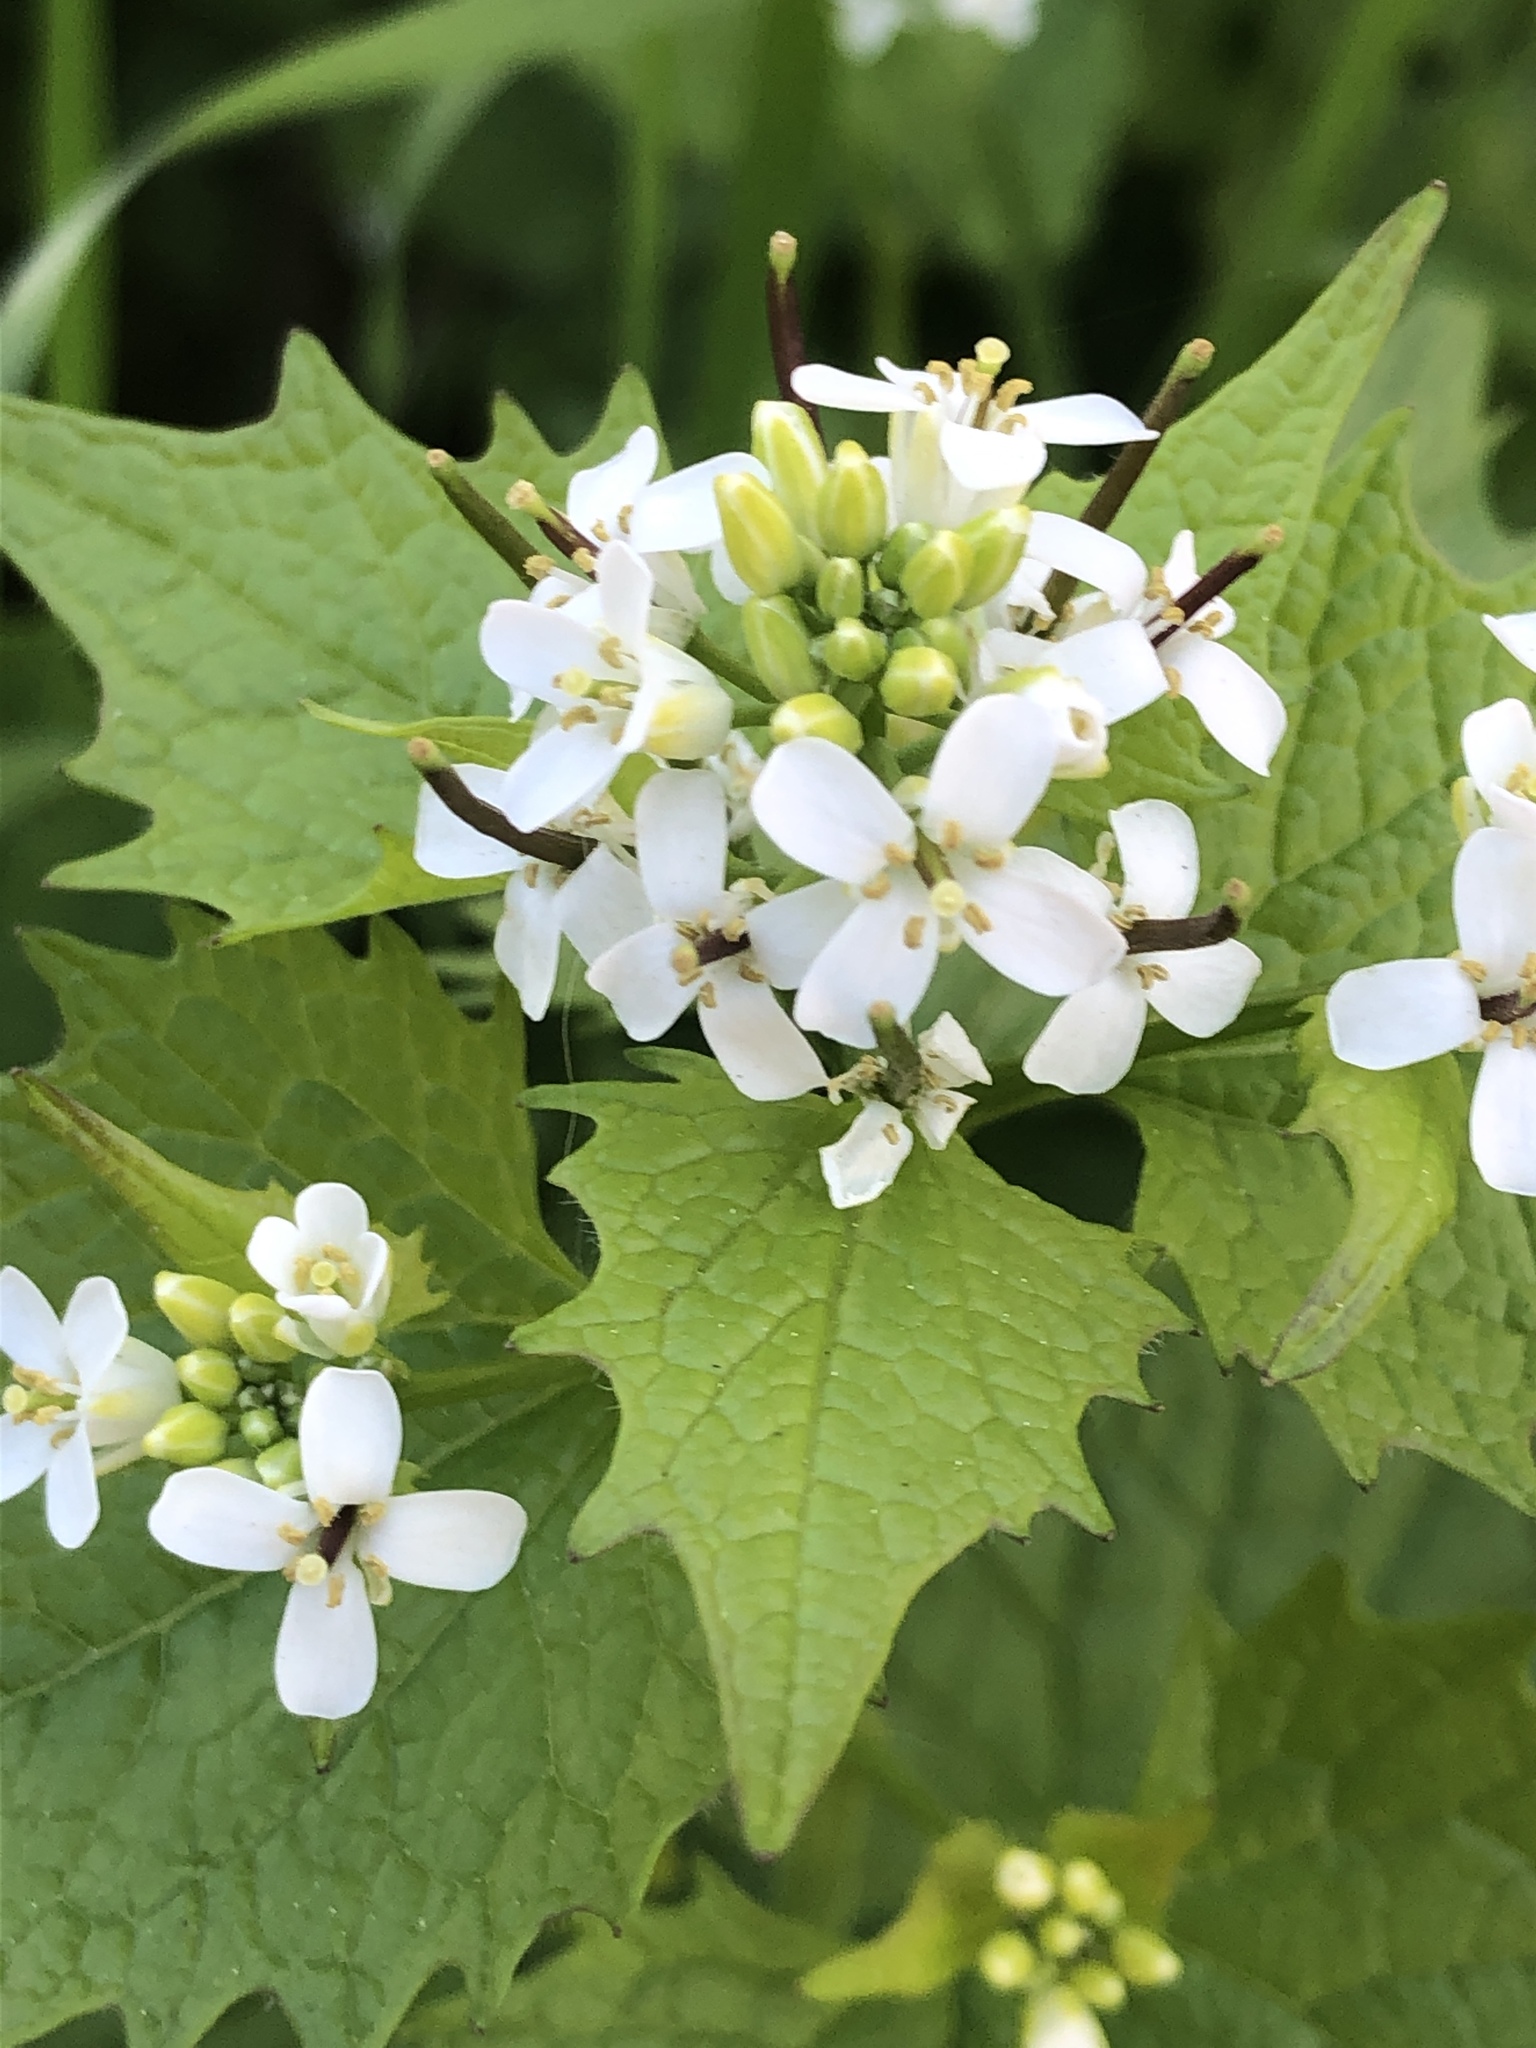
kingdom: Plantae
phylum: Tracheophyta
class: Magnoliopsida
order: Brassicales
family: Brassicaceae
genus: Alliaria
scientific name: Alliaria petiolata
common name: Garlic mustard
